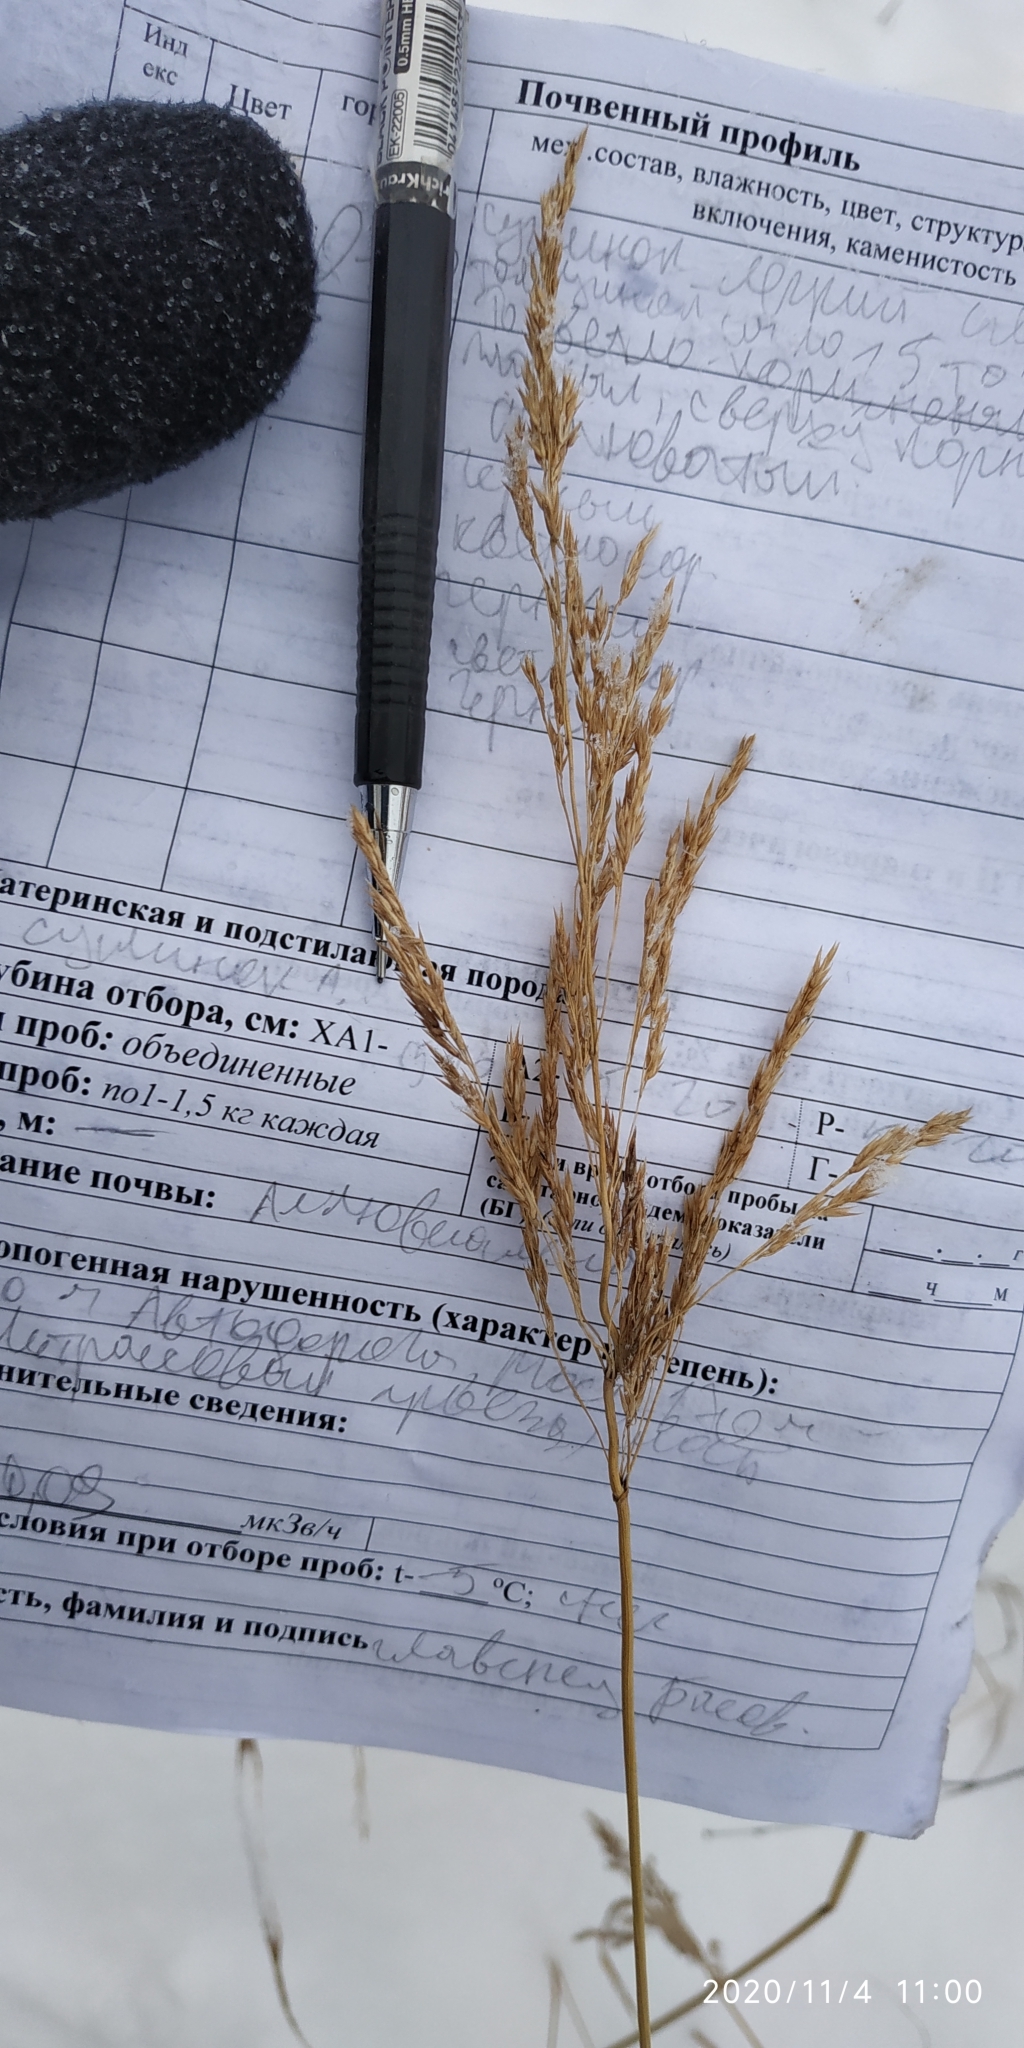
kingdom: Plantae
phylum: Tracheophyta
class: Liliopsida
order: Poales
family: Poaceae
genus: Phalaris
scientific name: Phalaris arundinacea
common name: Reed canary-grass
